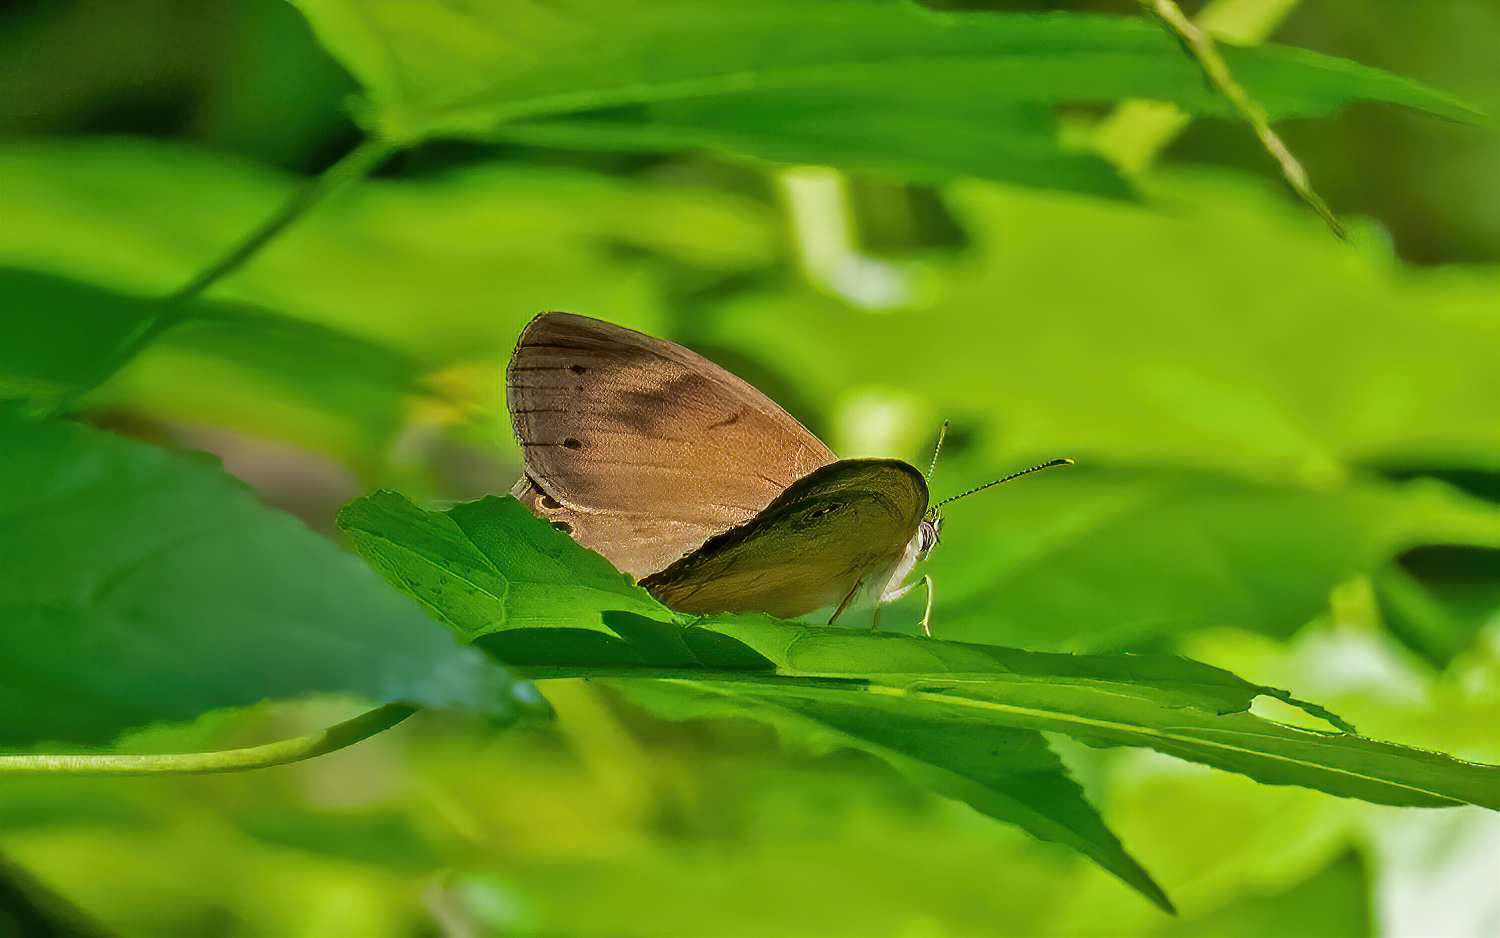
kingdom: Animalia
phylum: Arthropoda
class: Insecta
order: Lepidoptera
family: Nymphalidae
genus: Lethe
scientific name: Lethe eurydice
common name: Eyed brown
